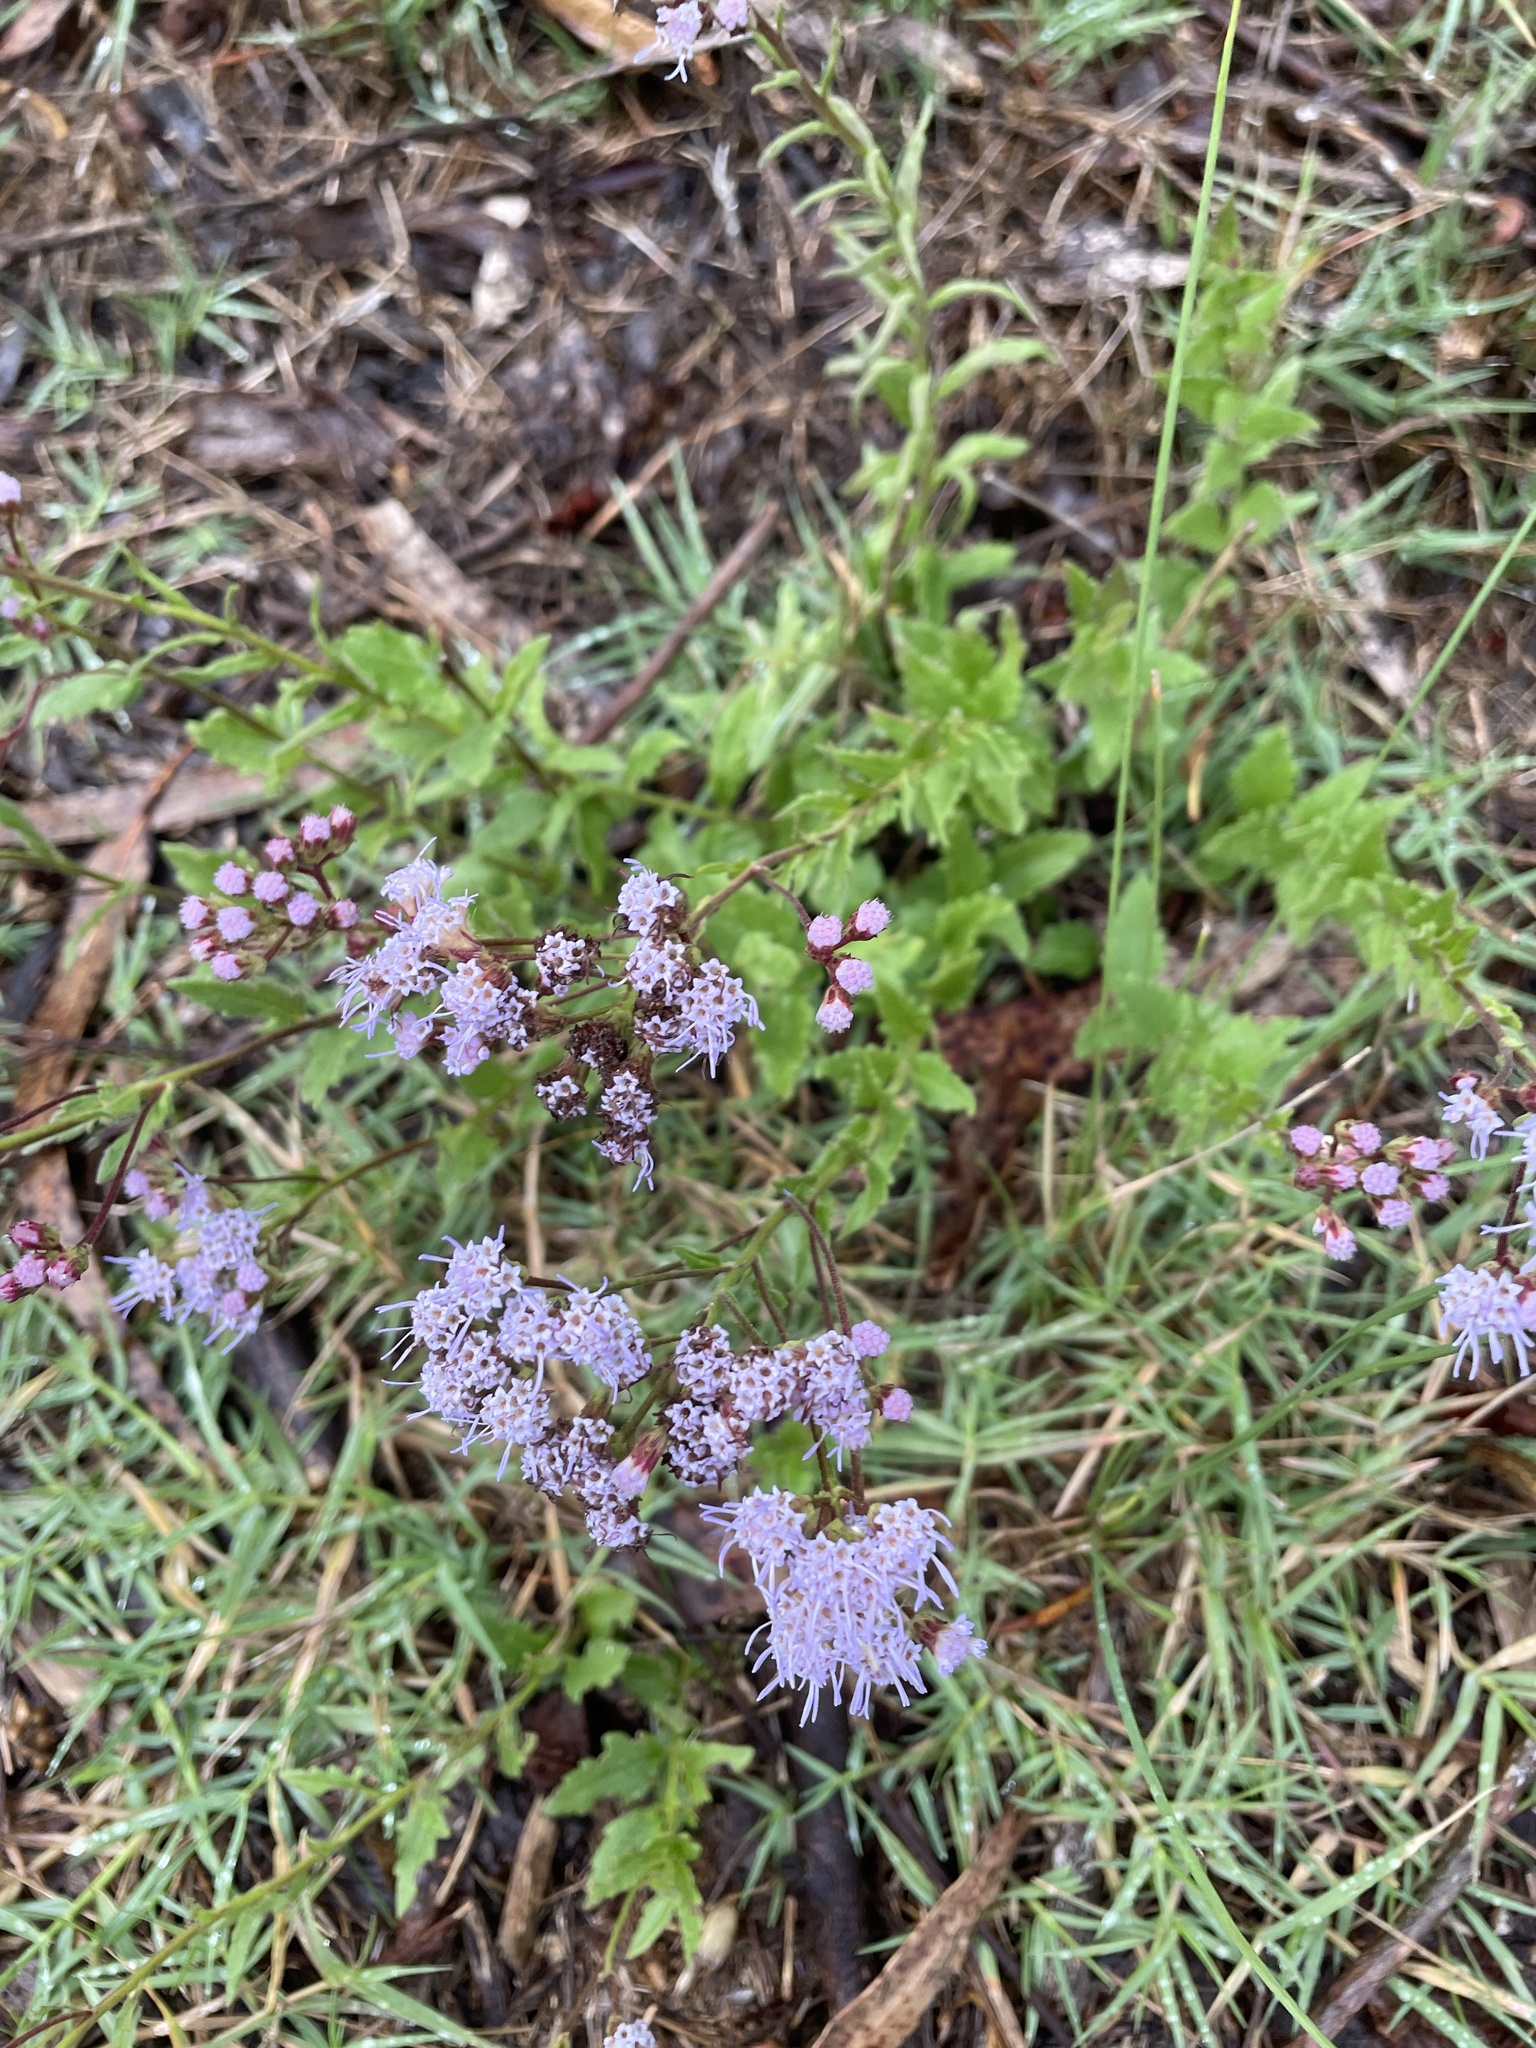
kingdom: Plantae
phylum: Tracheophyta
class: Magnoliopsida
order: Asterales
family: Asteraceae
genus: Chromolaena
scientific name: Chromolaena hirsuta
